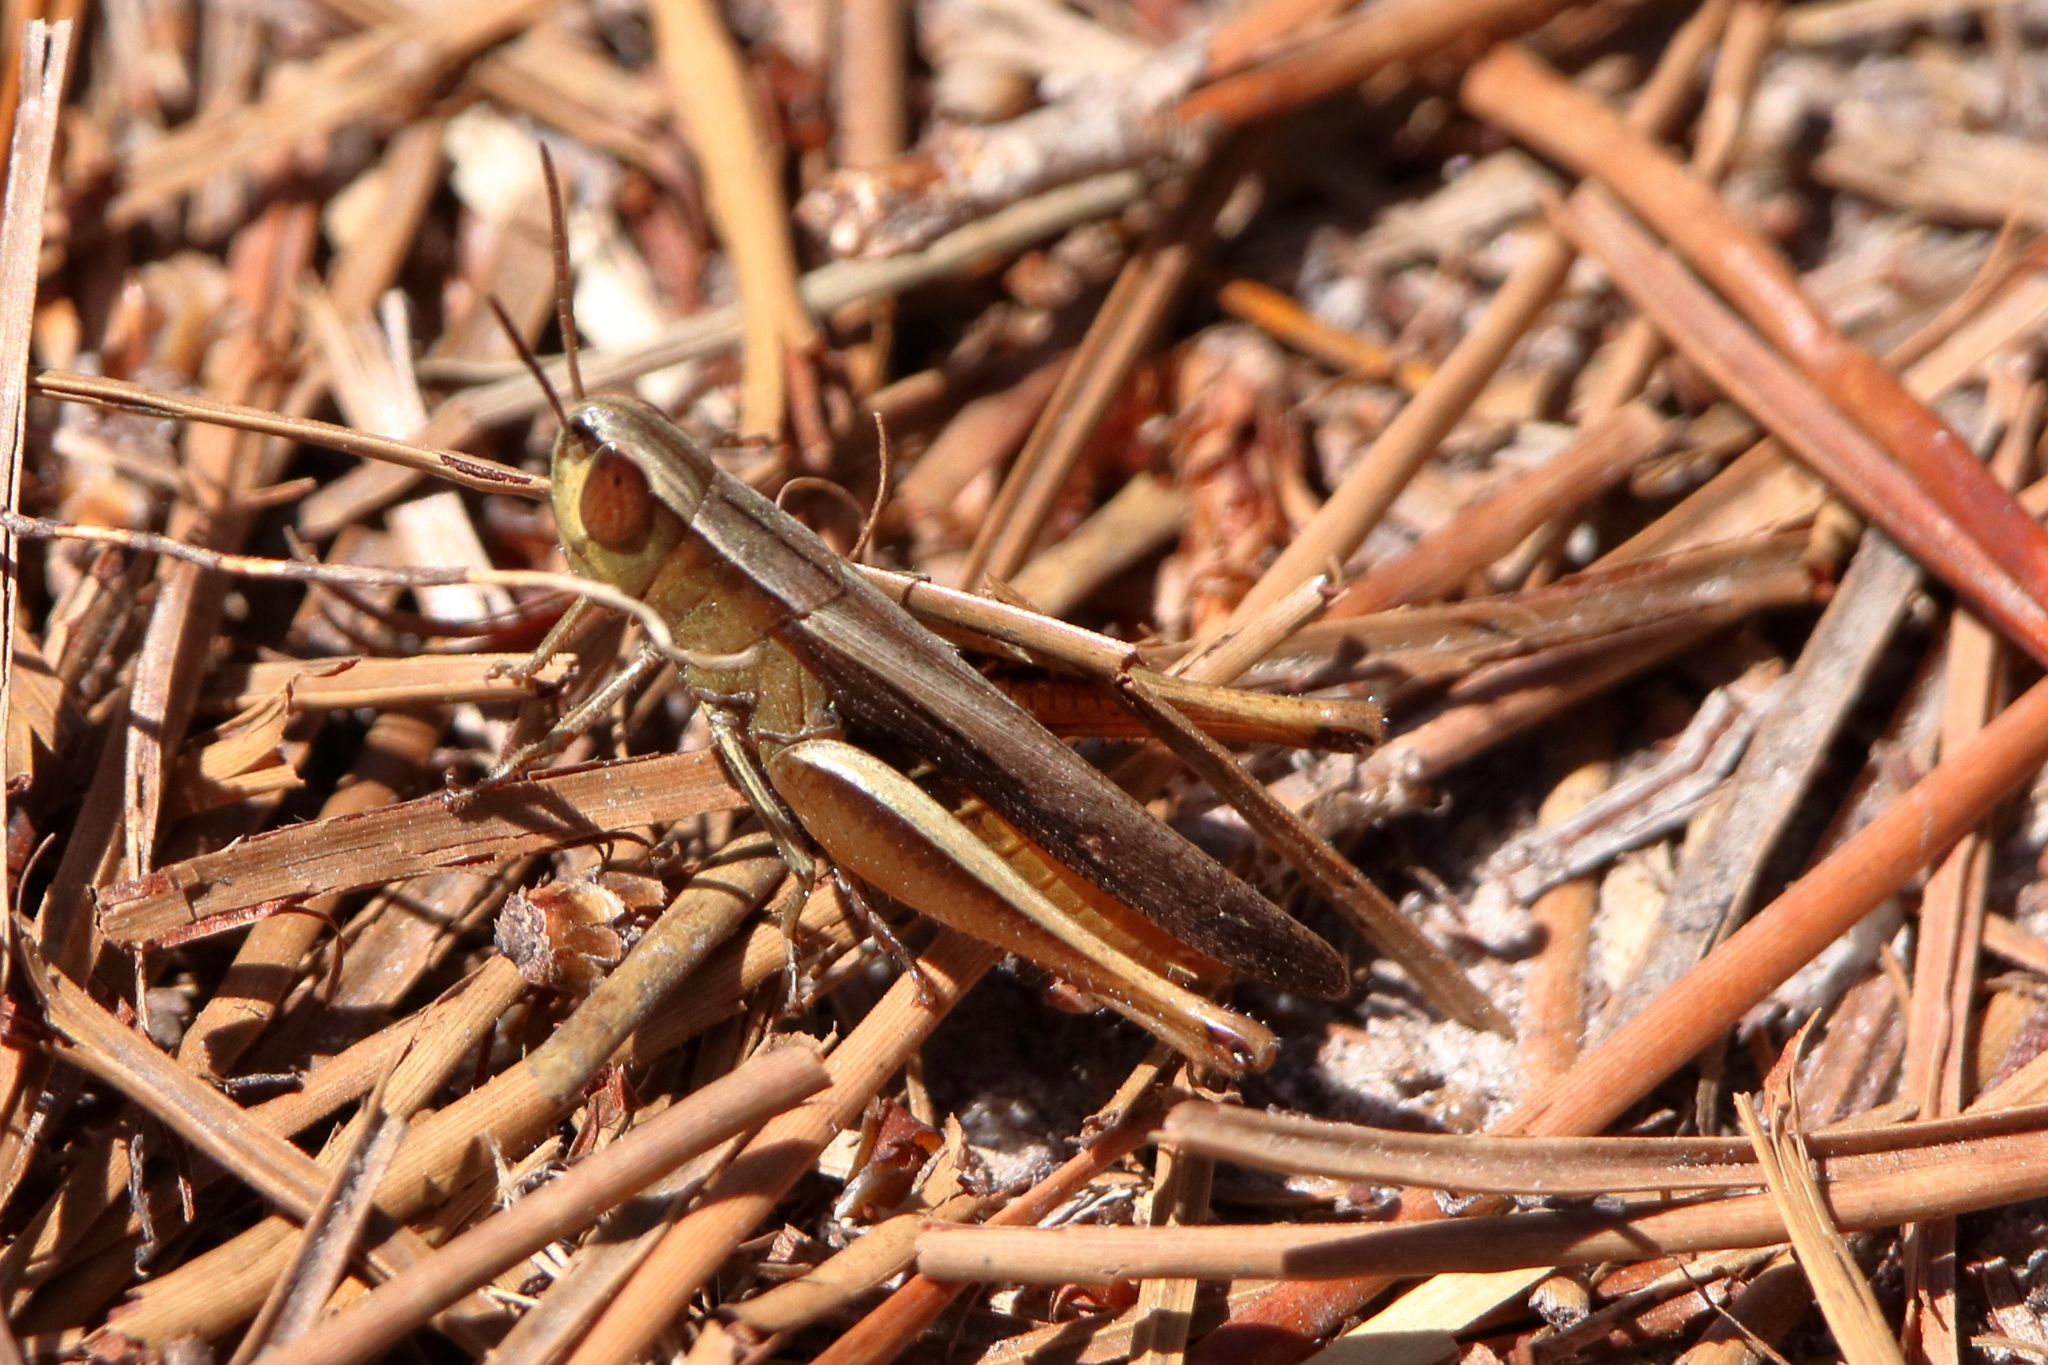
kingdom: Animalia
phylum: Arthropoda
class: Insecta
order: Orthoptera
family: Acrididae
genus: Amblytropidia
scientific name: Amblytropidia mysteca
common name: Brown winter grasshopper
